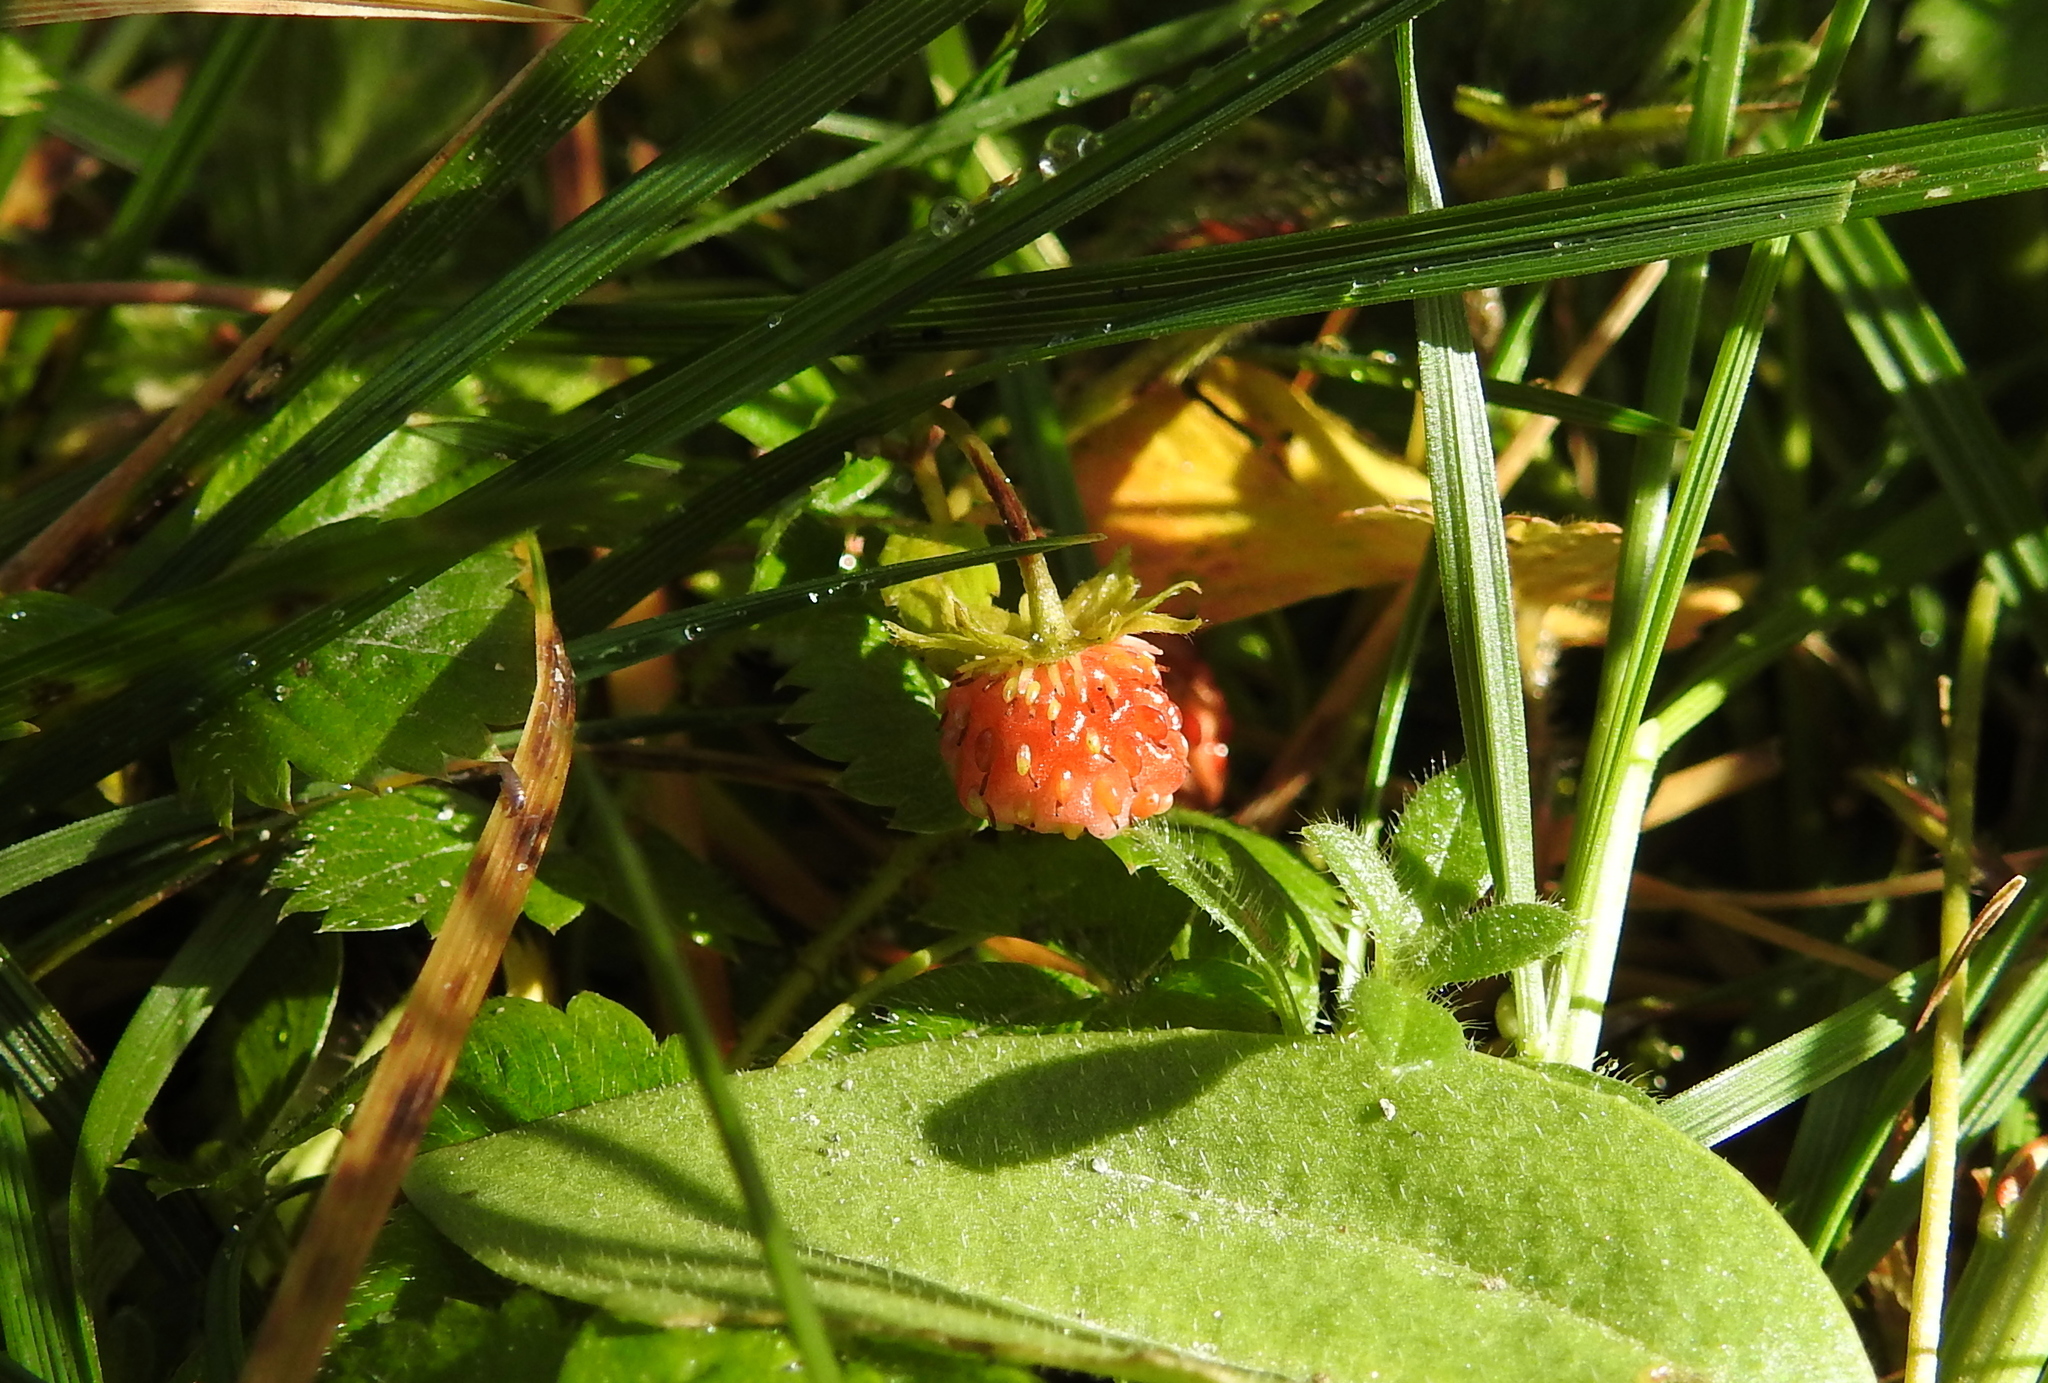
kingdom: Plantae
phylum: Tracheophyta
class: Magnoliopsida
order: Rosales
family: Rosaceae
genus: Fragaria
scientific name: Fragaria vesca
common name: Wild strawberry
